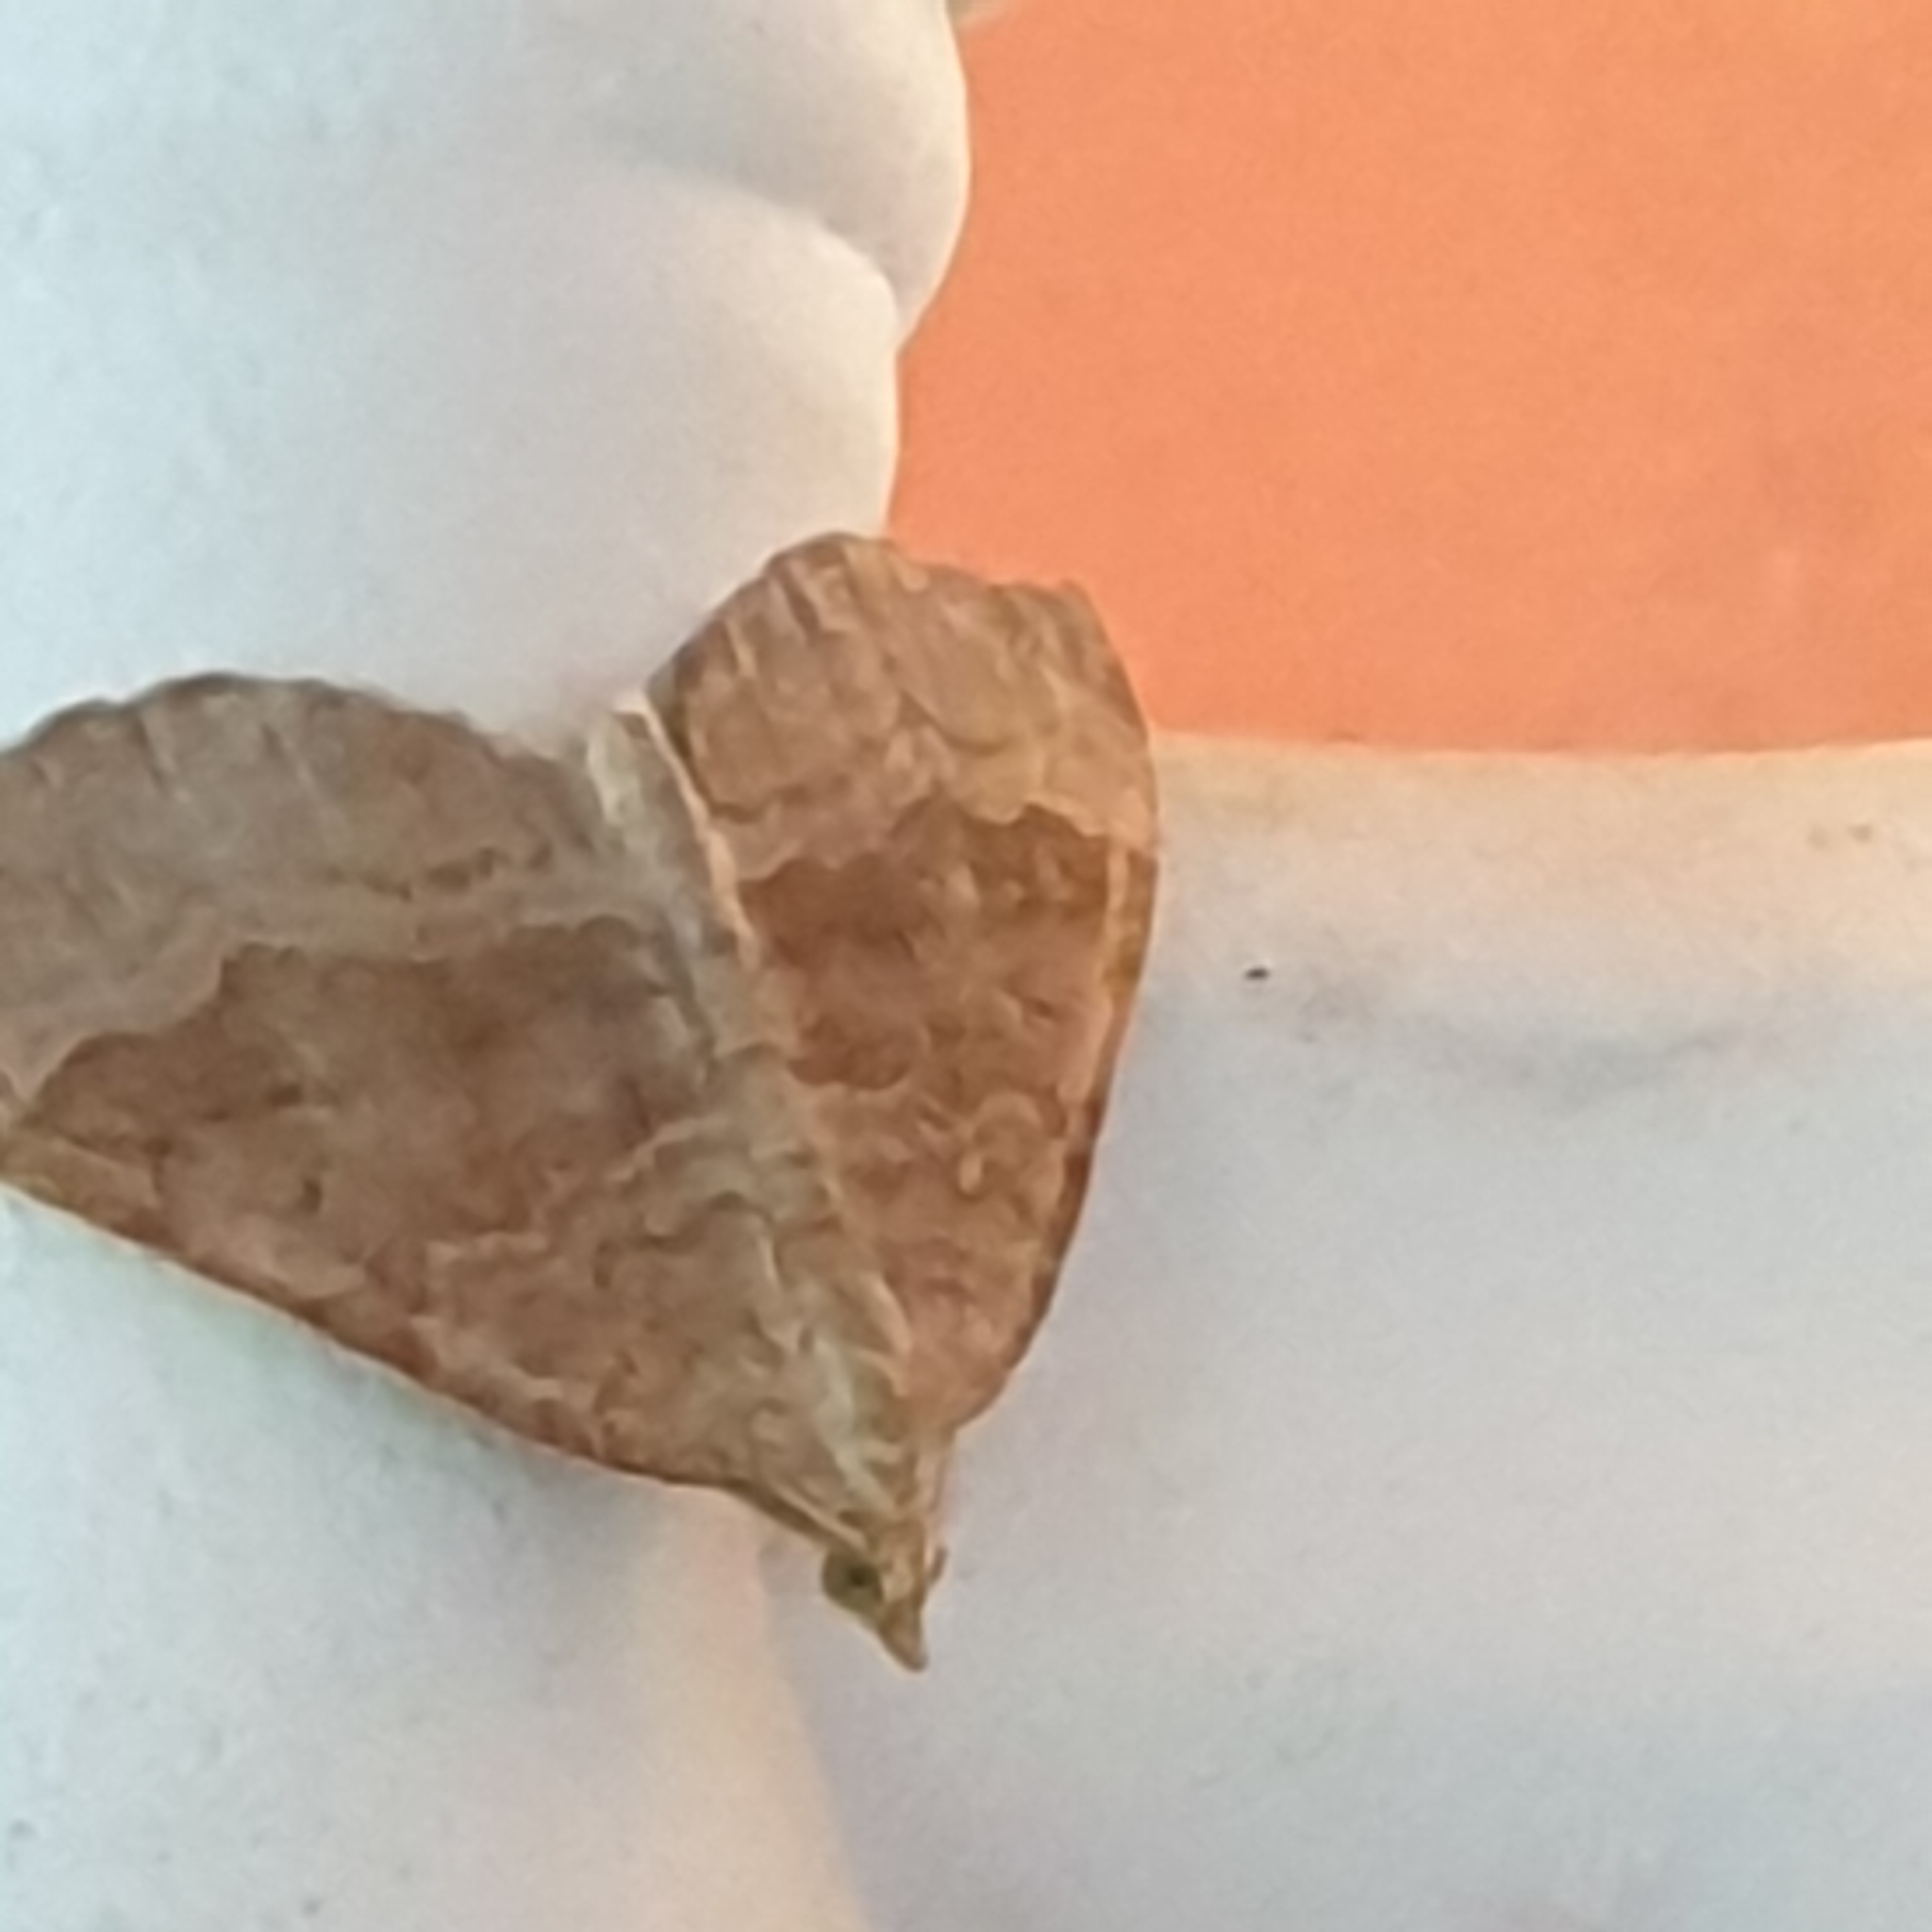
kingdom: Animalia
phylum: Arthropoda
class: Insecta
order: Lepidoptera
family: Geometridae
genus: Scotopteryx
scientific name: Scotopteryx chenopodiata
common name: Shaded broad-bar
